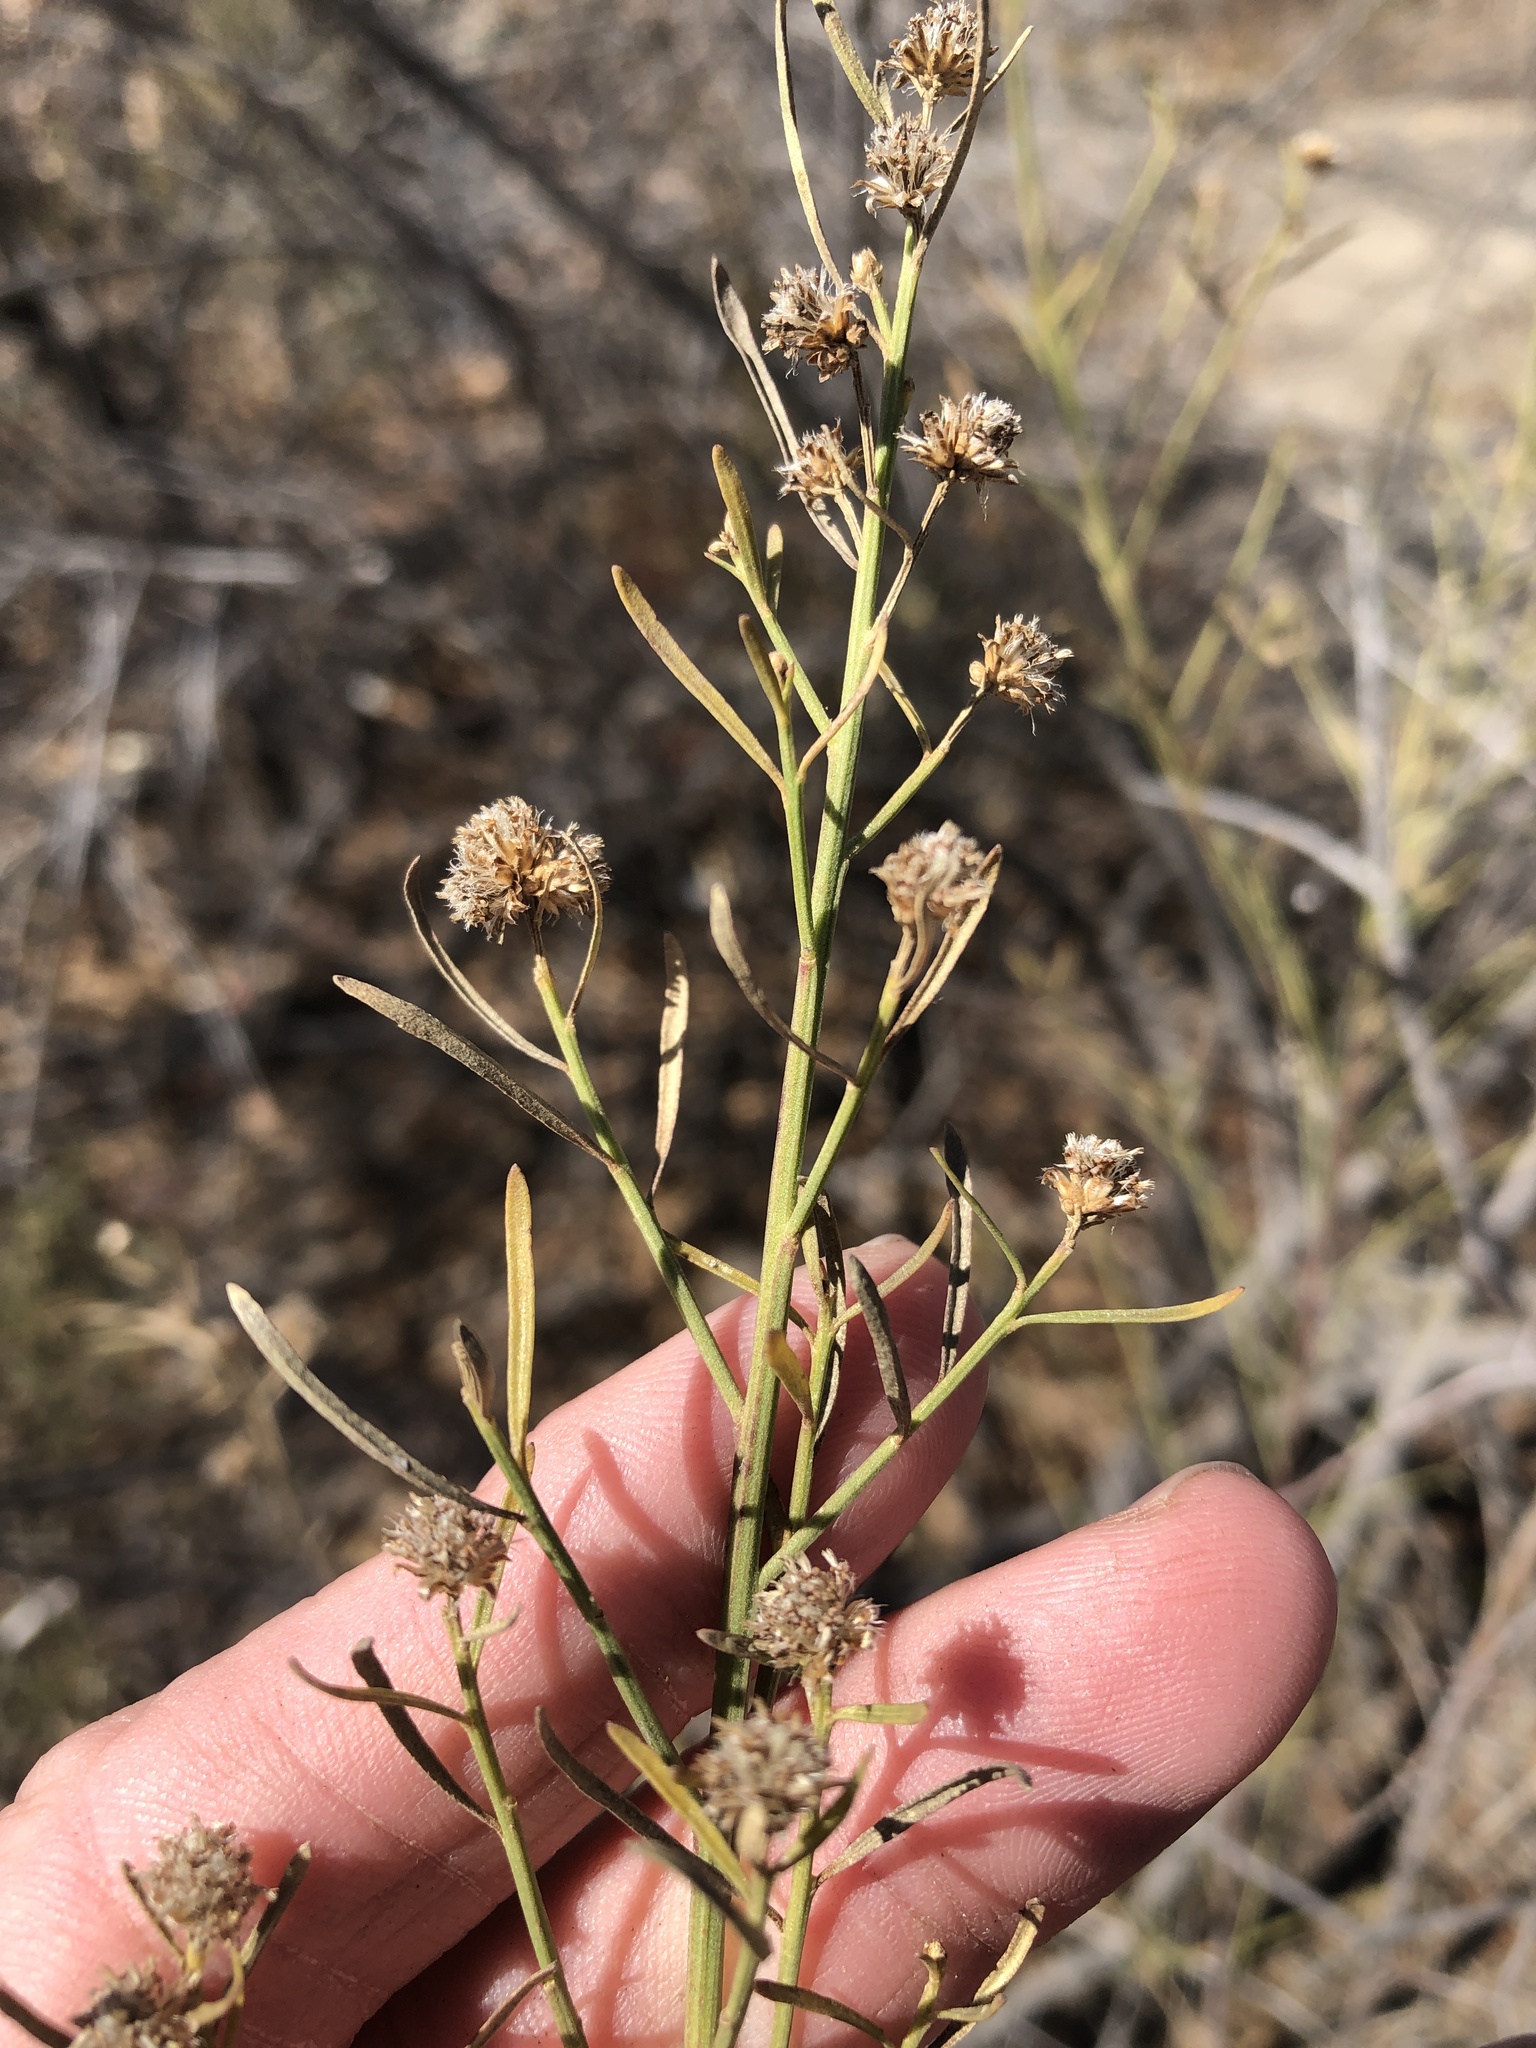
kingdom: Plantae
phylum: Tracheophyta
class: Magnoliopsida
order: Asterales
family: Asteraceae
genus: Baccharis
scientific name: Baccharis neglecta
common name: Roosevelt-weed
